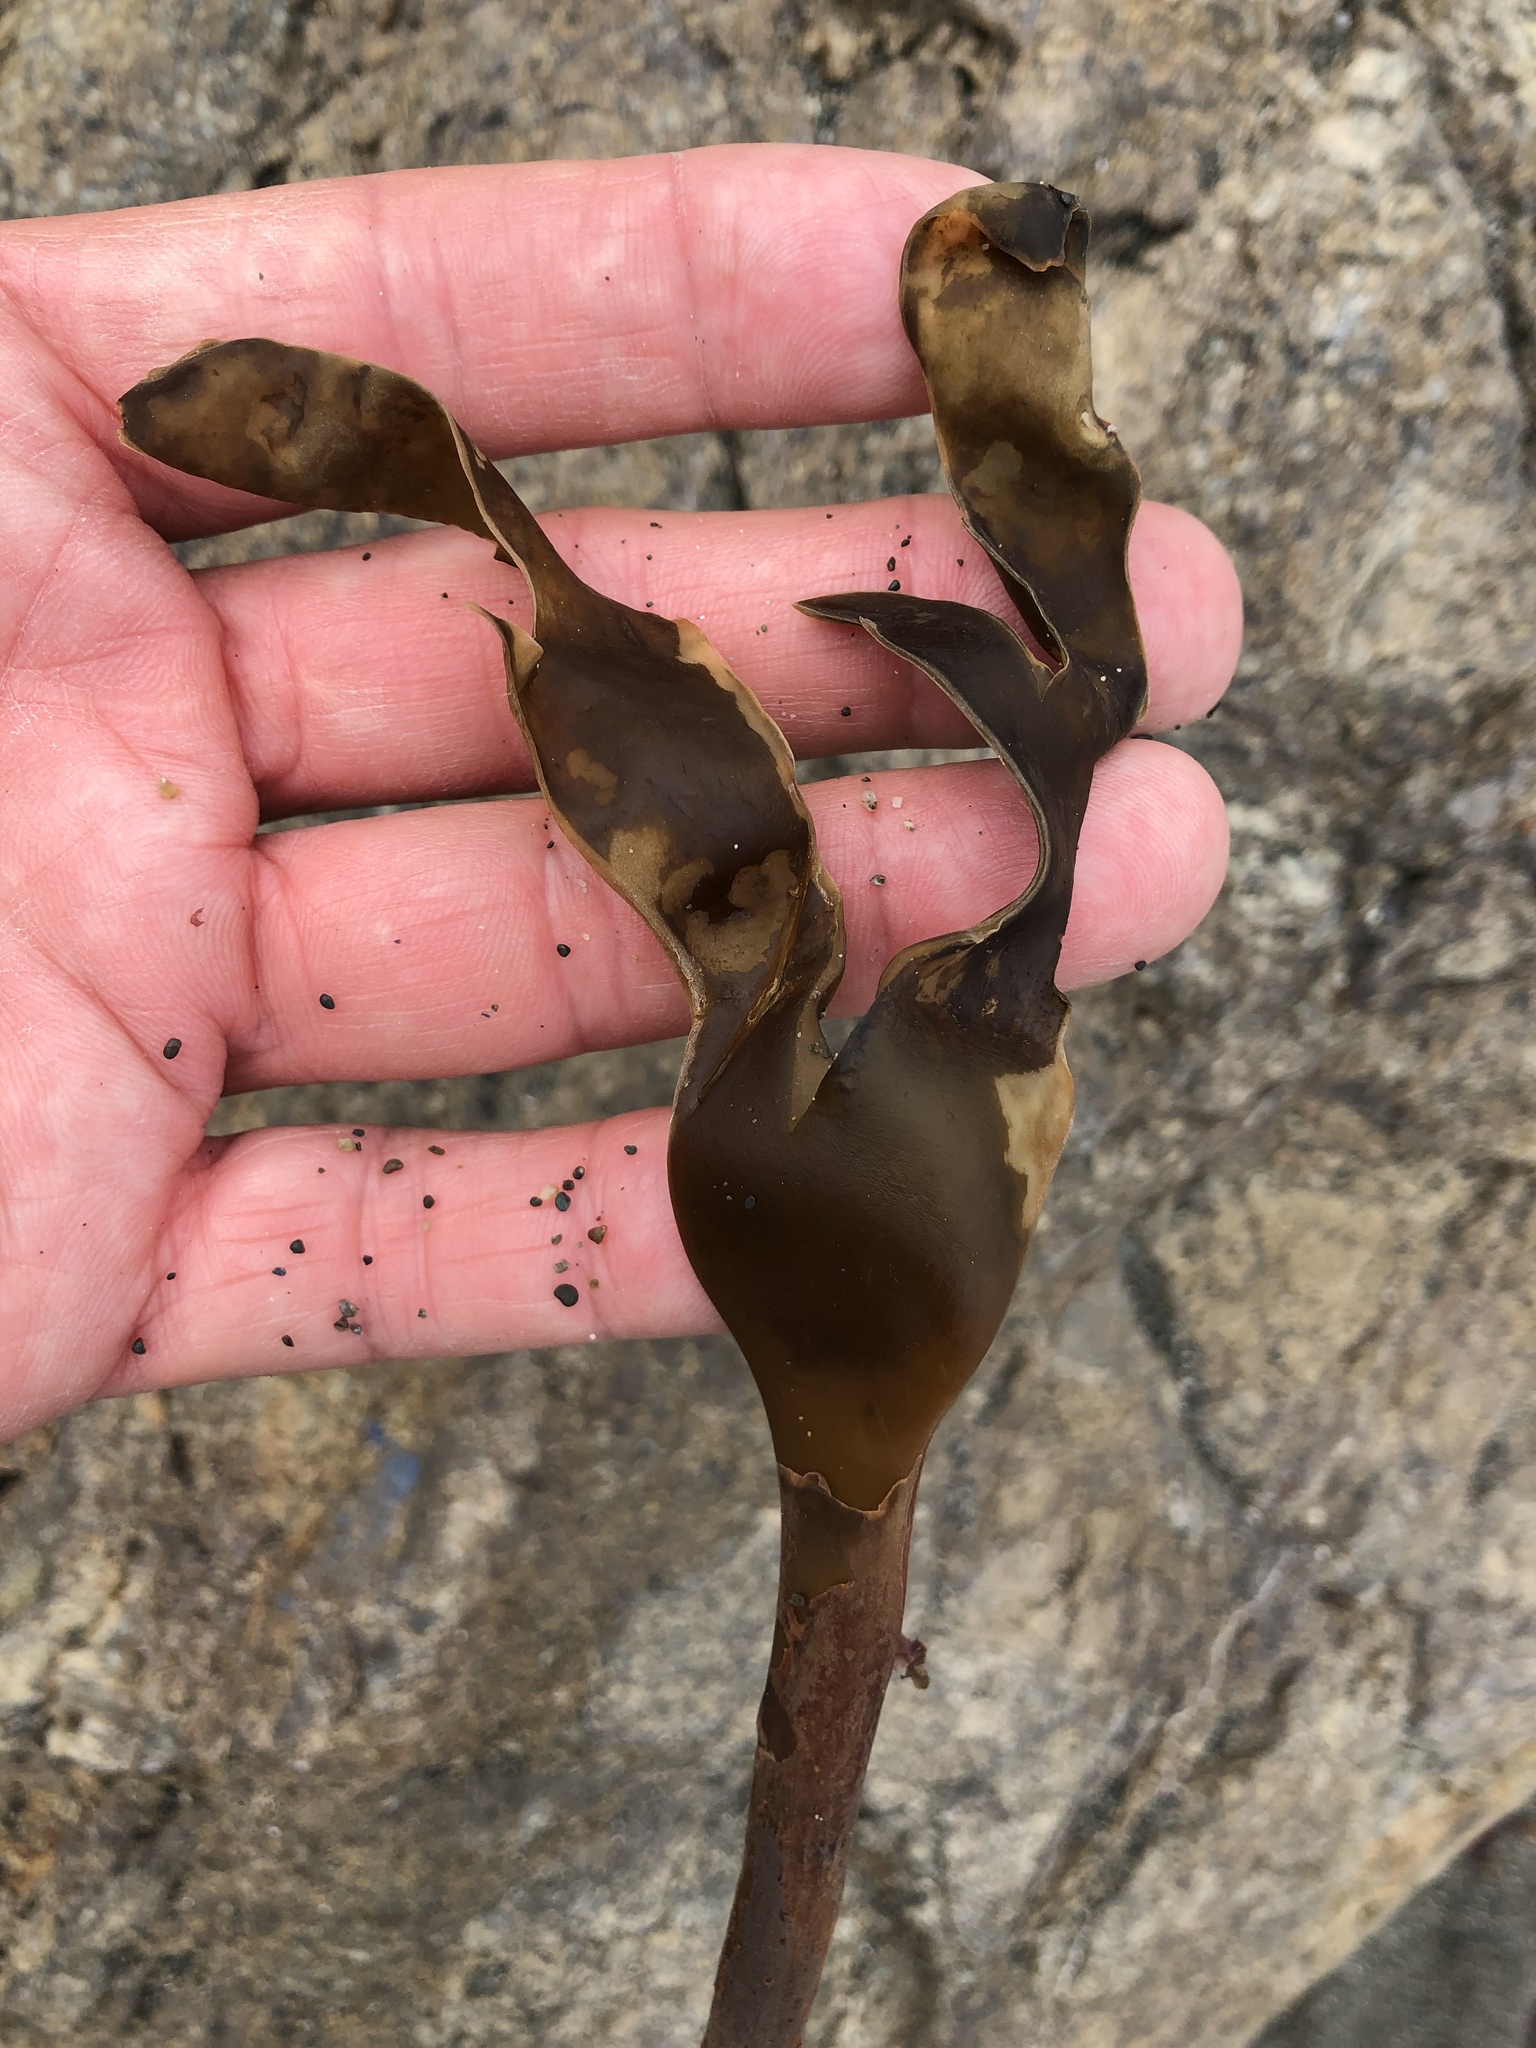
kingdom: Chromista
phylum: Ochrophyta
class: Phaeophyceae
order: Laminariales
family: Laminariaceae
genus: Laminaria
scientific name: Laminaria setchellii
